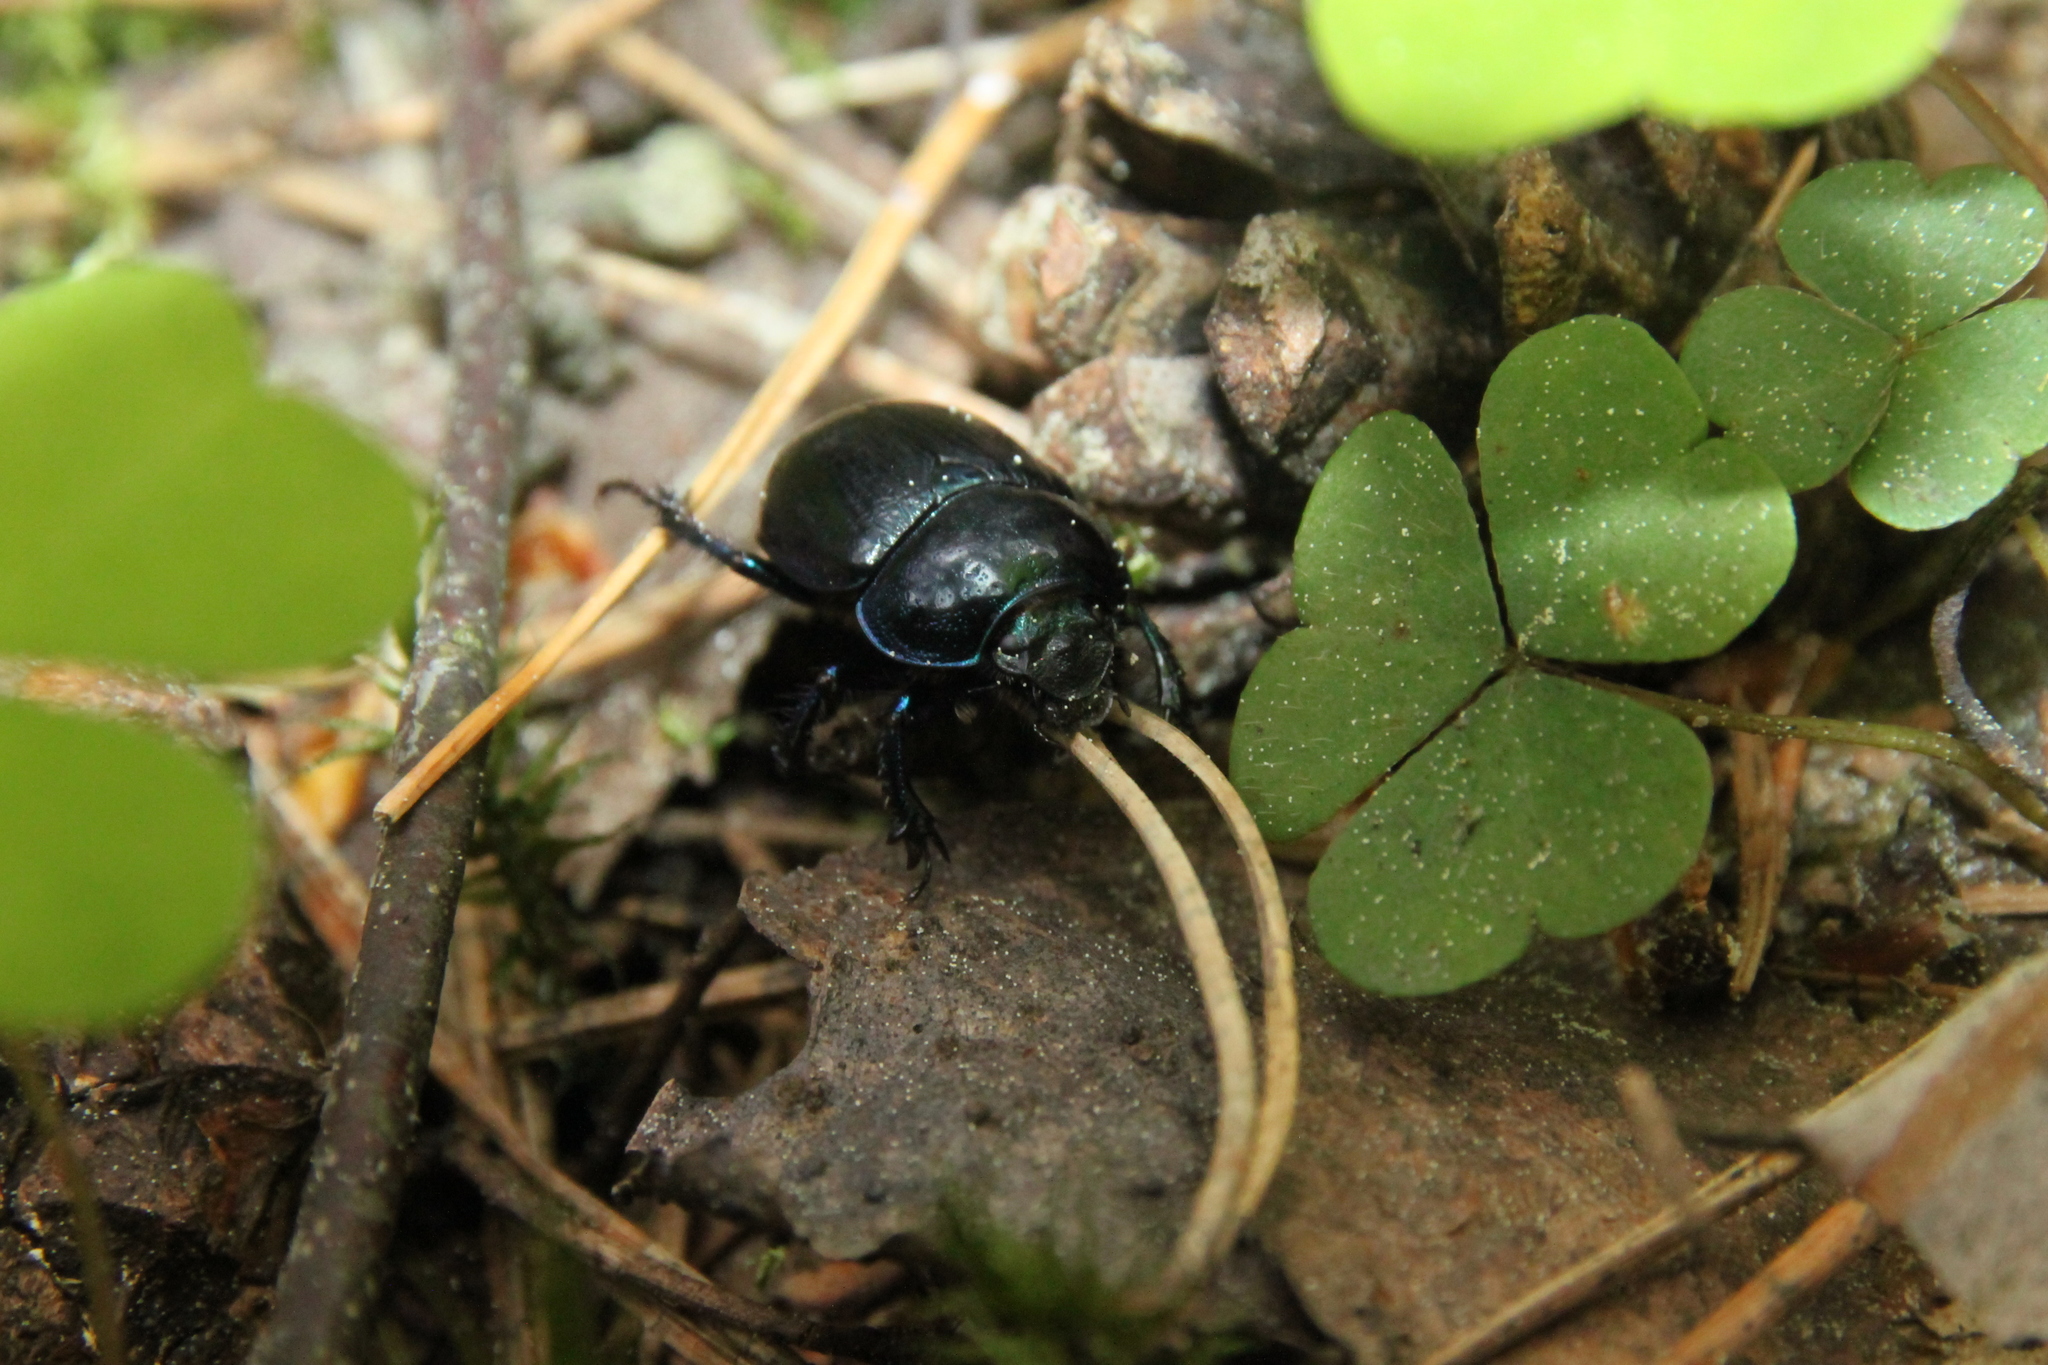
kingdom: Animalia
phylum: Arthropoda
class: Insecta
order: Coleoptera
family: Geotrupidae
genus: Anoplotrupes
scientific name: Anoplotrupes stercorosus
